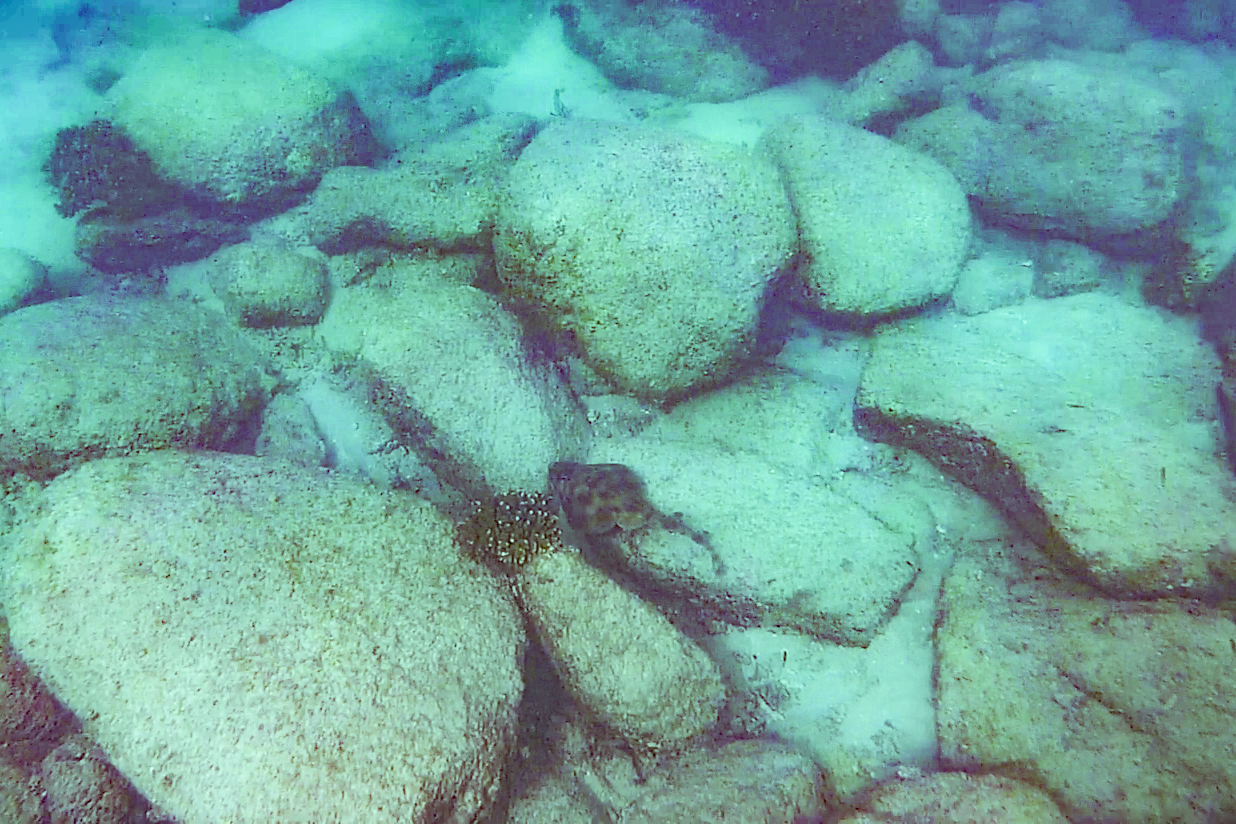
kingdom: Animalia
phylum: Chordata
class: Elasmobranchii
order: Rhinopristiformes
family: Rhinobatidae
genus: Zapteryx
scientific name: Zapteryx exasperata
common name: Banded guitarfish
